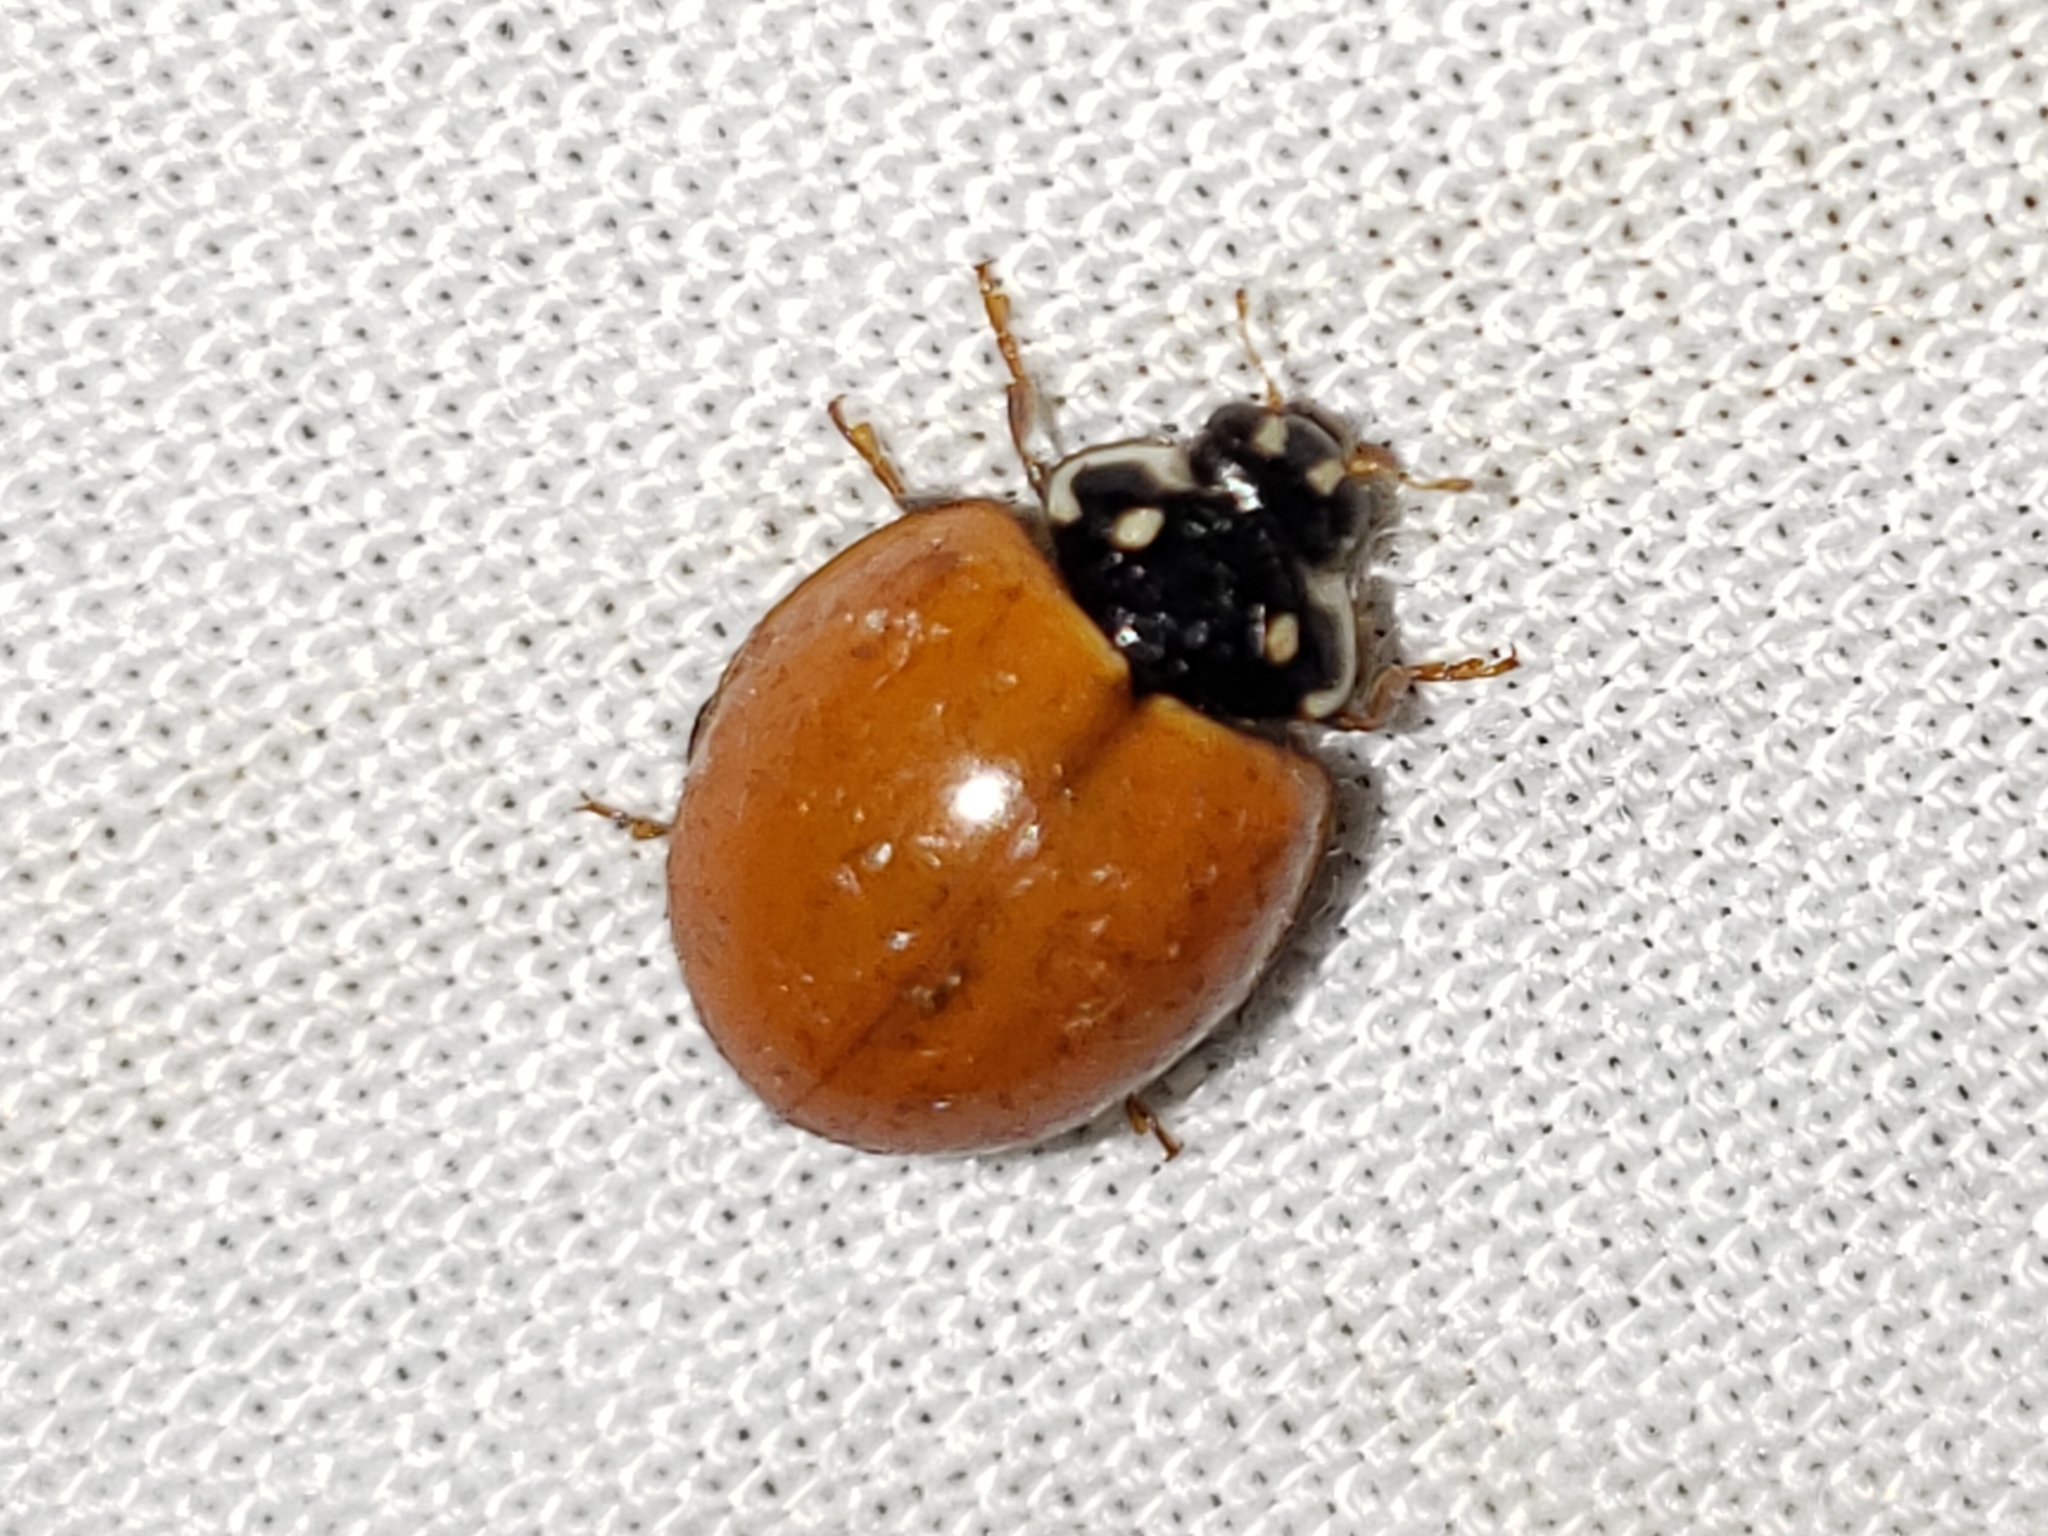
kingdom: Animalia
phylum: Arthropoda
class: Insecta
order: Coleoptera
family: Coccinellidae
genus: Cycloneda
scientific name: Cycloneda sanguinea
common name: Ladybird beetle
